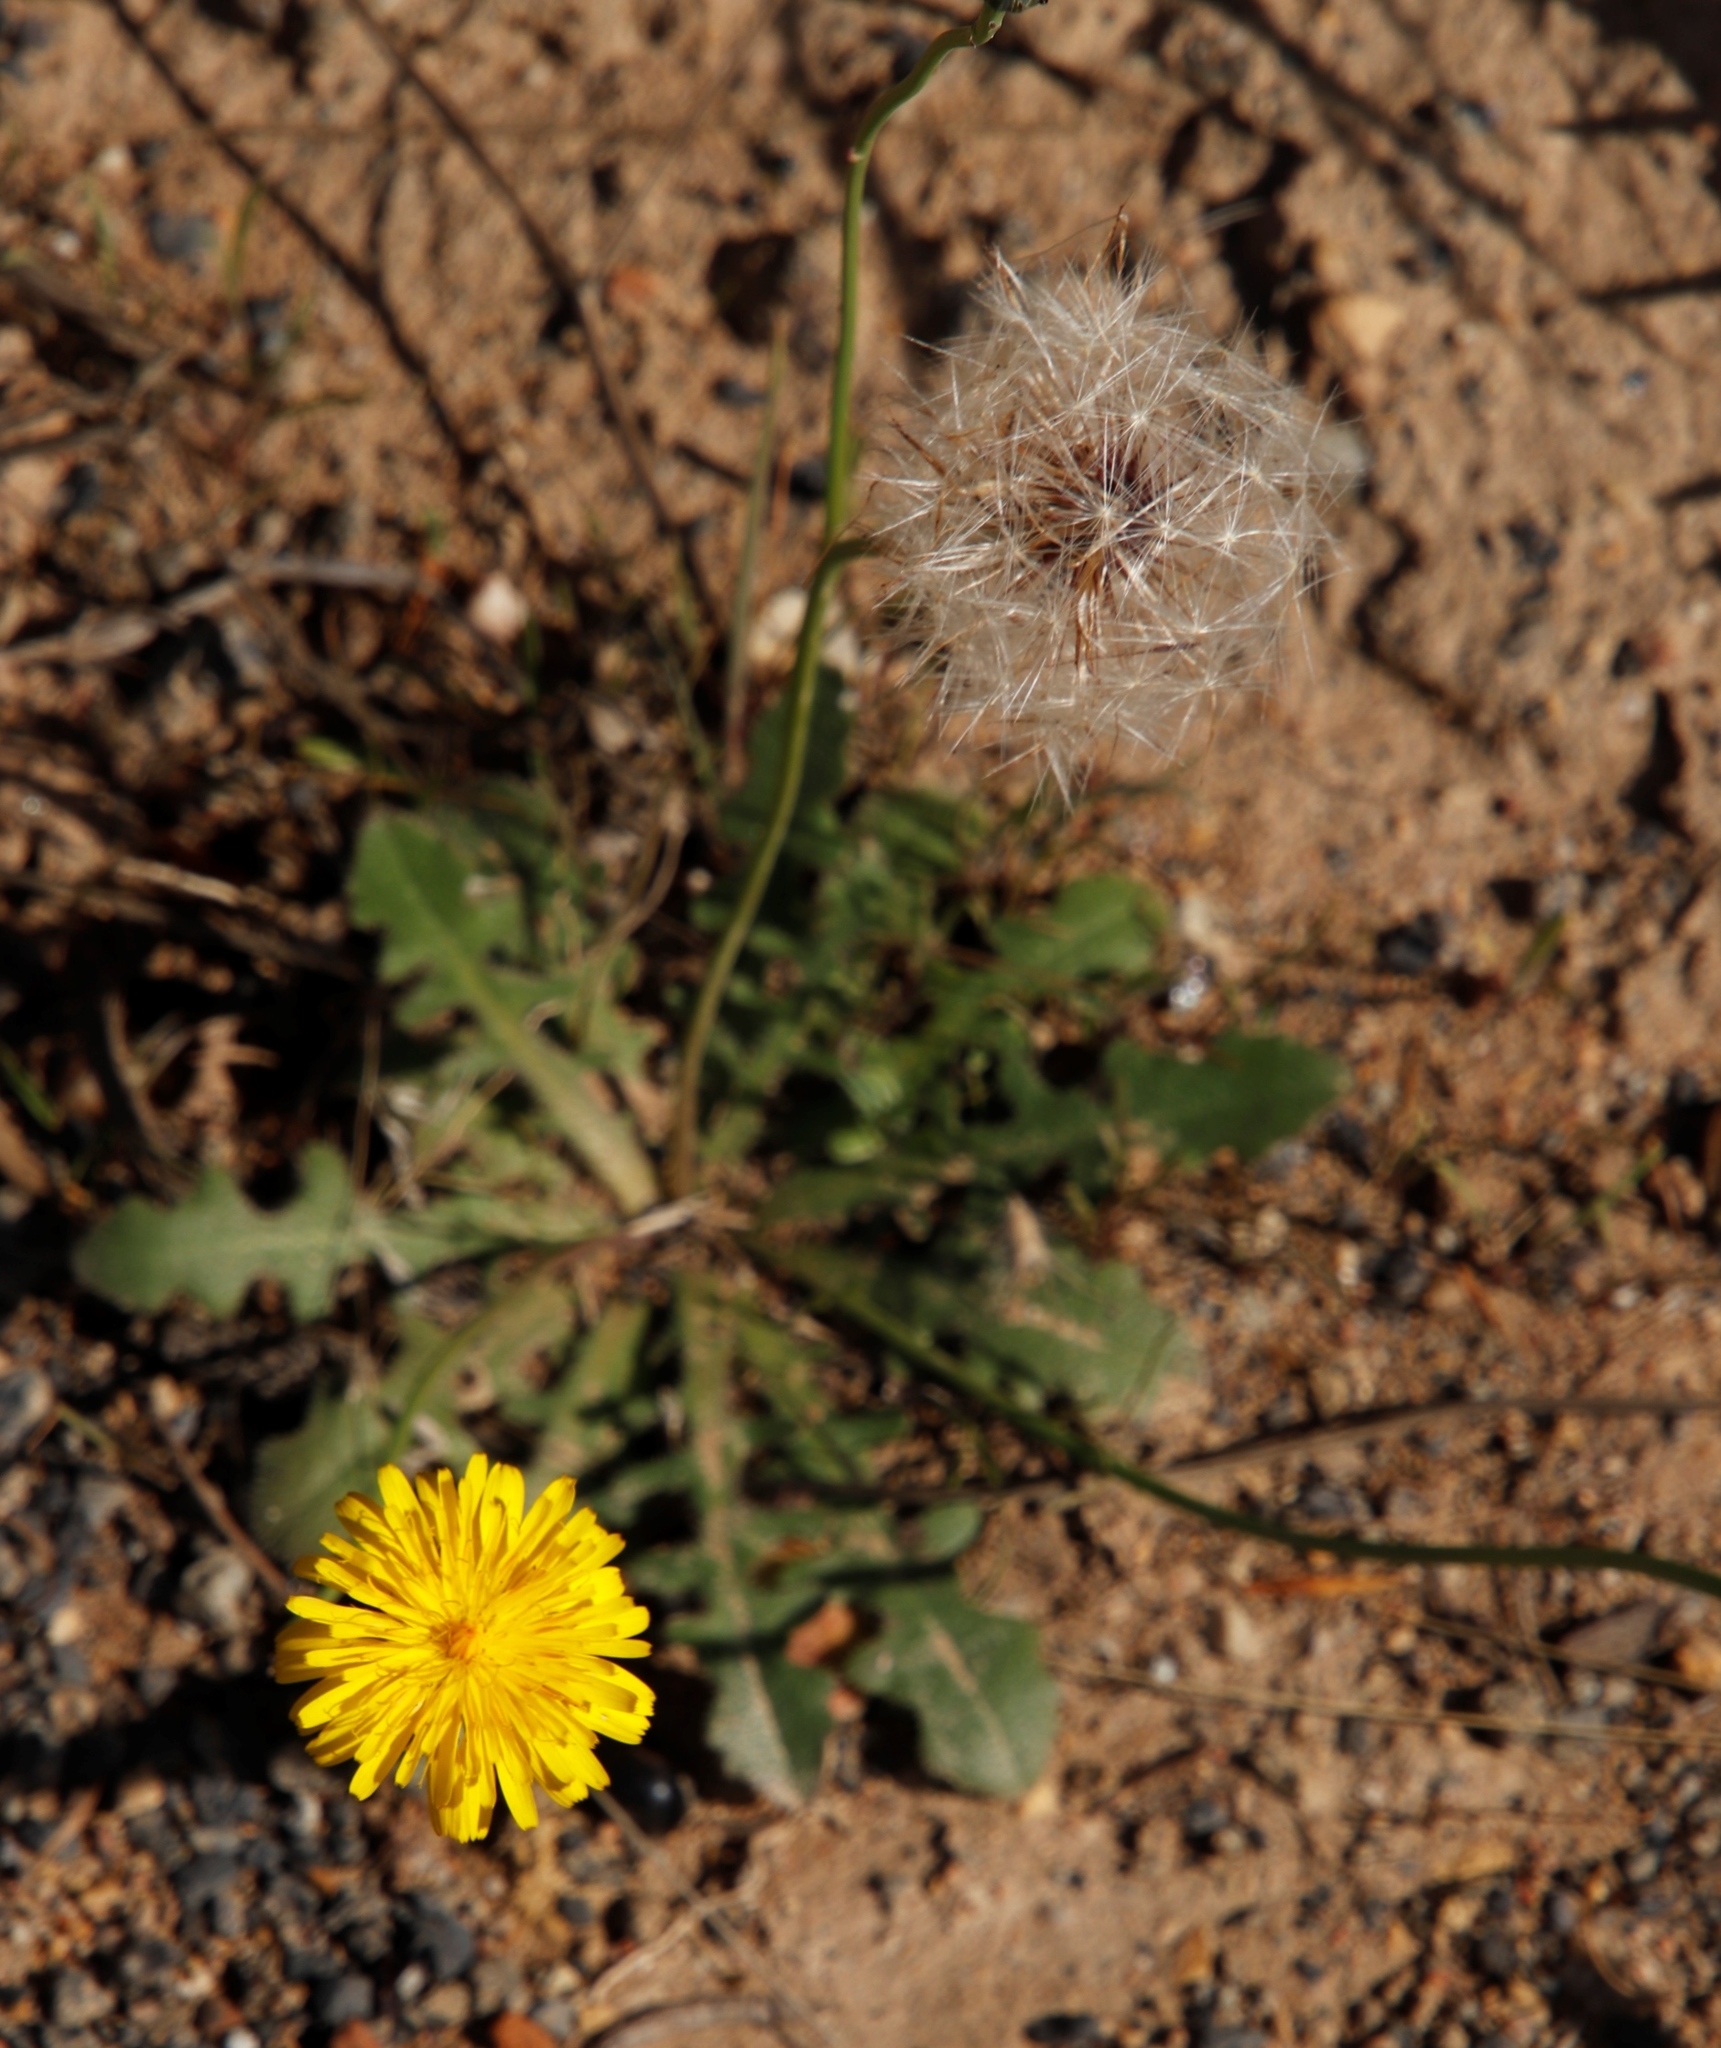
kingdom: Plantae
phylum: Tracheophyta
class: Magnoliopsida
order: Asterales
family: Asteraceae
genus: Hypochaeris
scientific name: Hypochaeris radicata
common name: Flatweed
